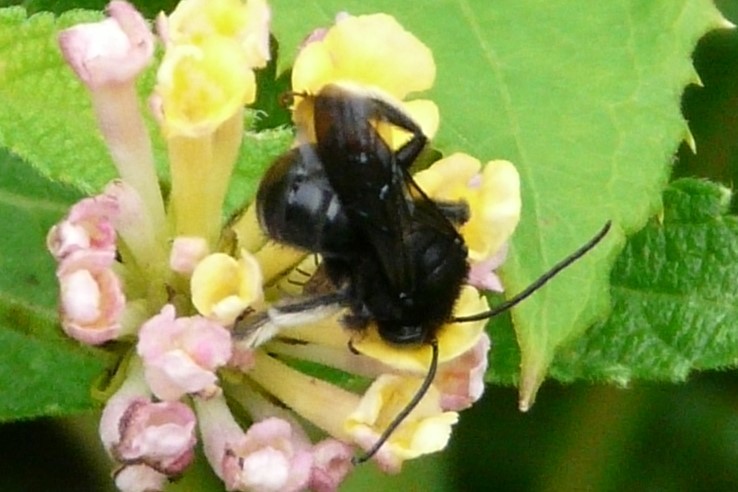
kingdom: Animalia
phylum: Arthropoda
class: Insecta
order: Hymenoptera
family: Apidae
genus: Melissodes
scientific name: Melissodes bimaculatus
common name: Two-spotted long-horned bee
